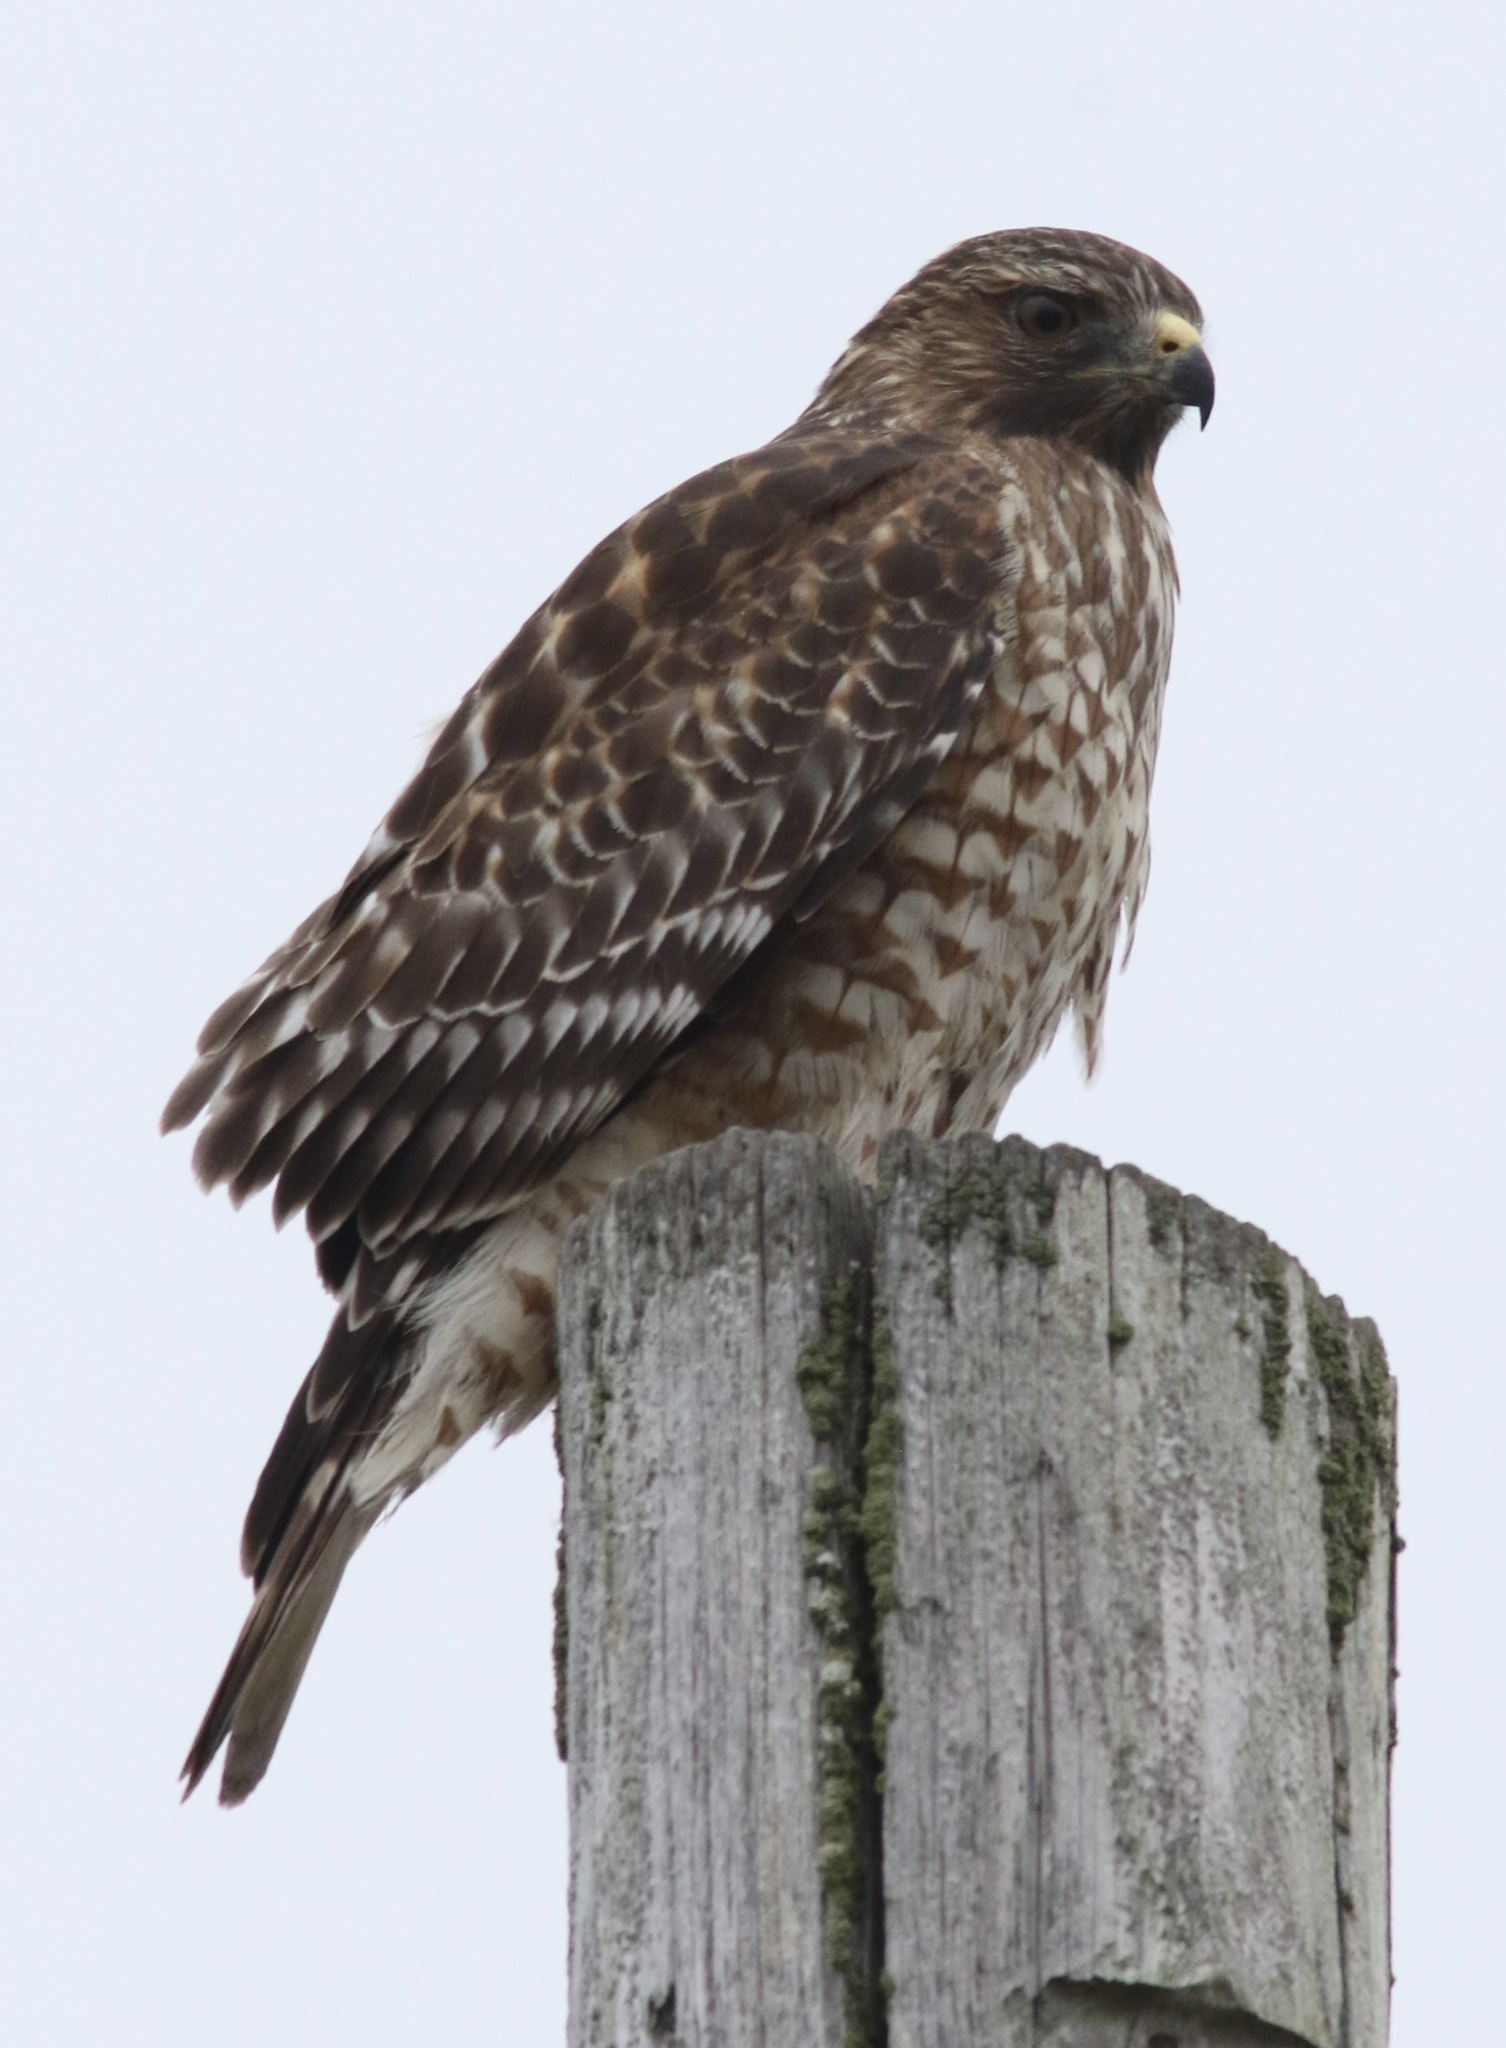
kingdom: Animalia
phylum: Chordata
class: Aves
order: Accipitriformes
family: Accipitridae
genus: Buteo
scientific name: Buteo lineatus
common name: Red-shouldered hawk
